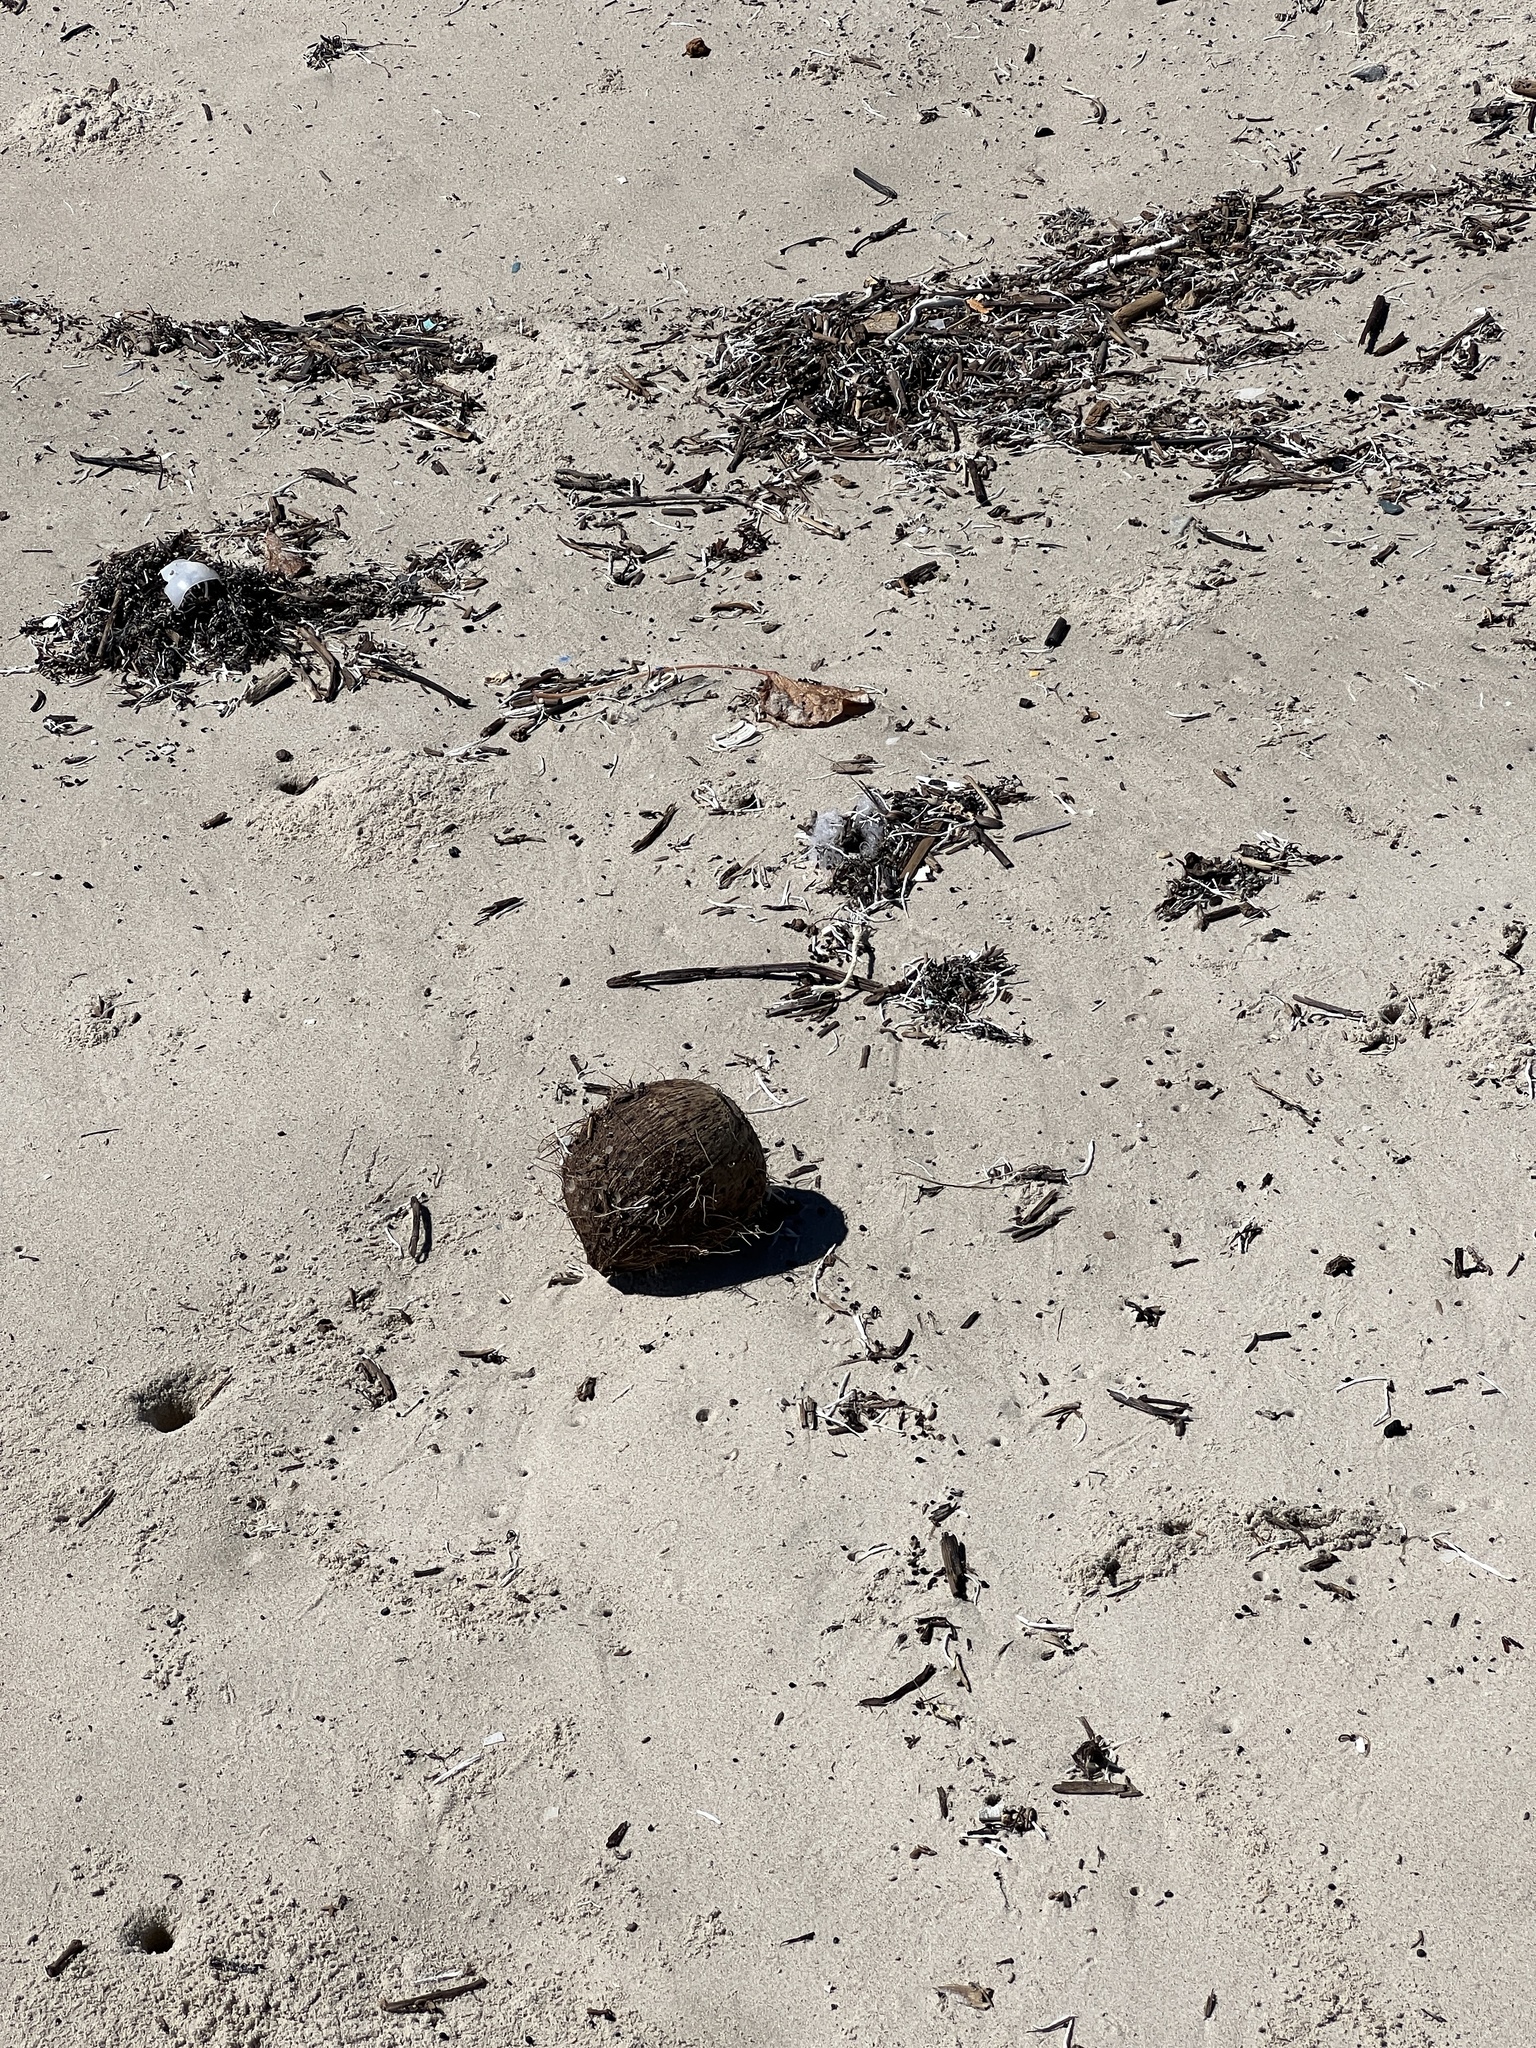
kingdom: Plantae
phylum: Tracheophyta
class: Liliopsida
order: Arecales
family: Arecaceae
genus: Cocos
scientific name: Cocos nucifera
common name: Coconut palm
